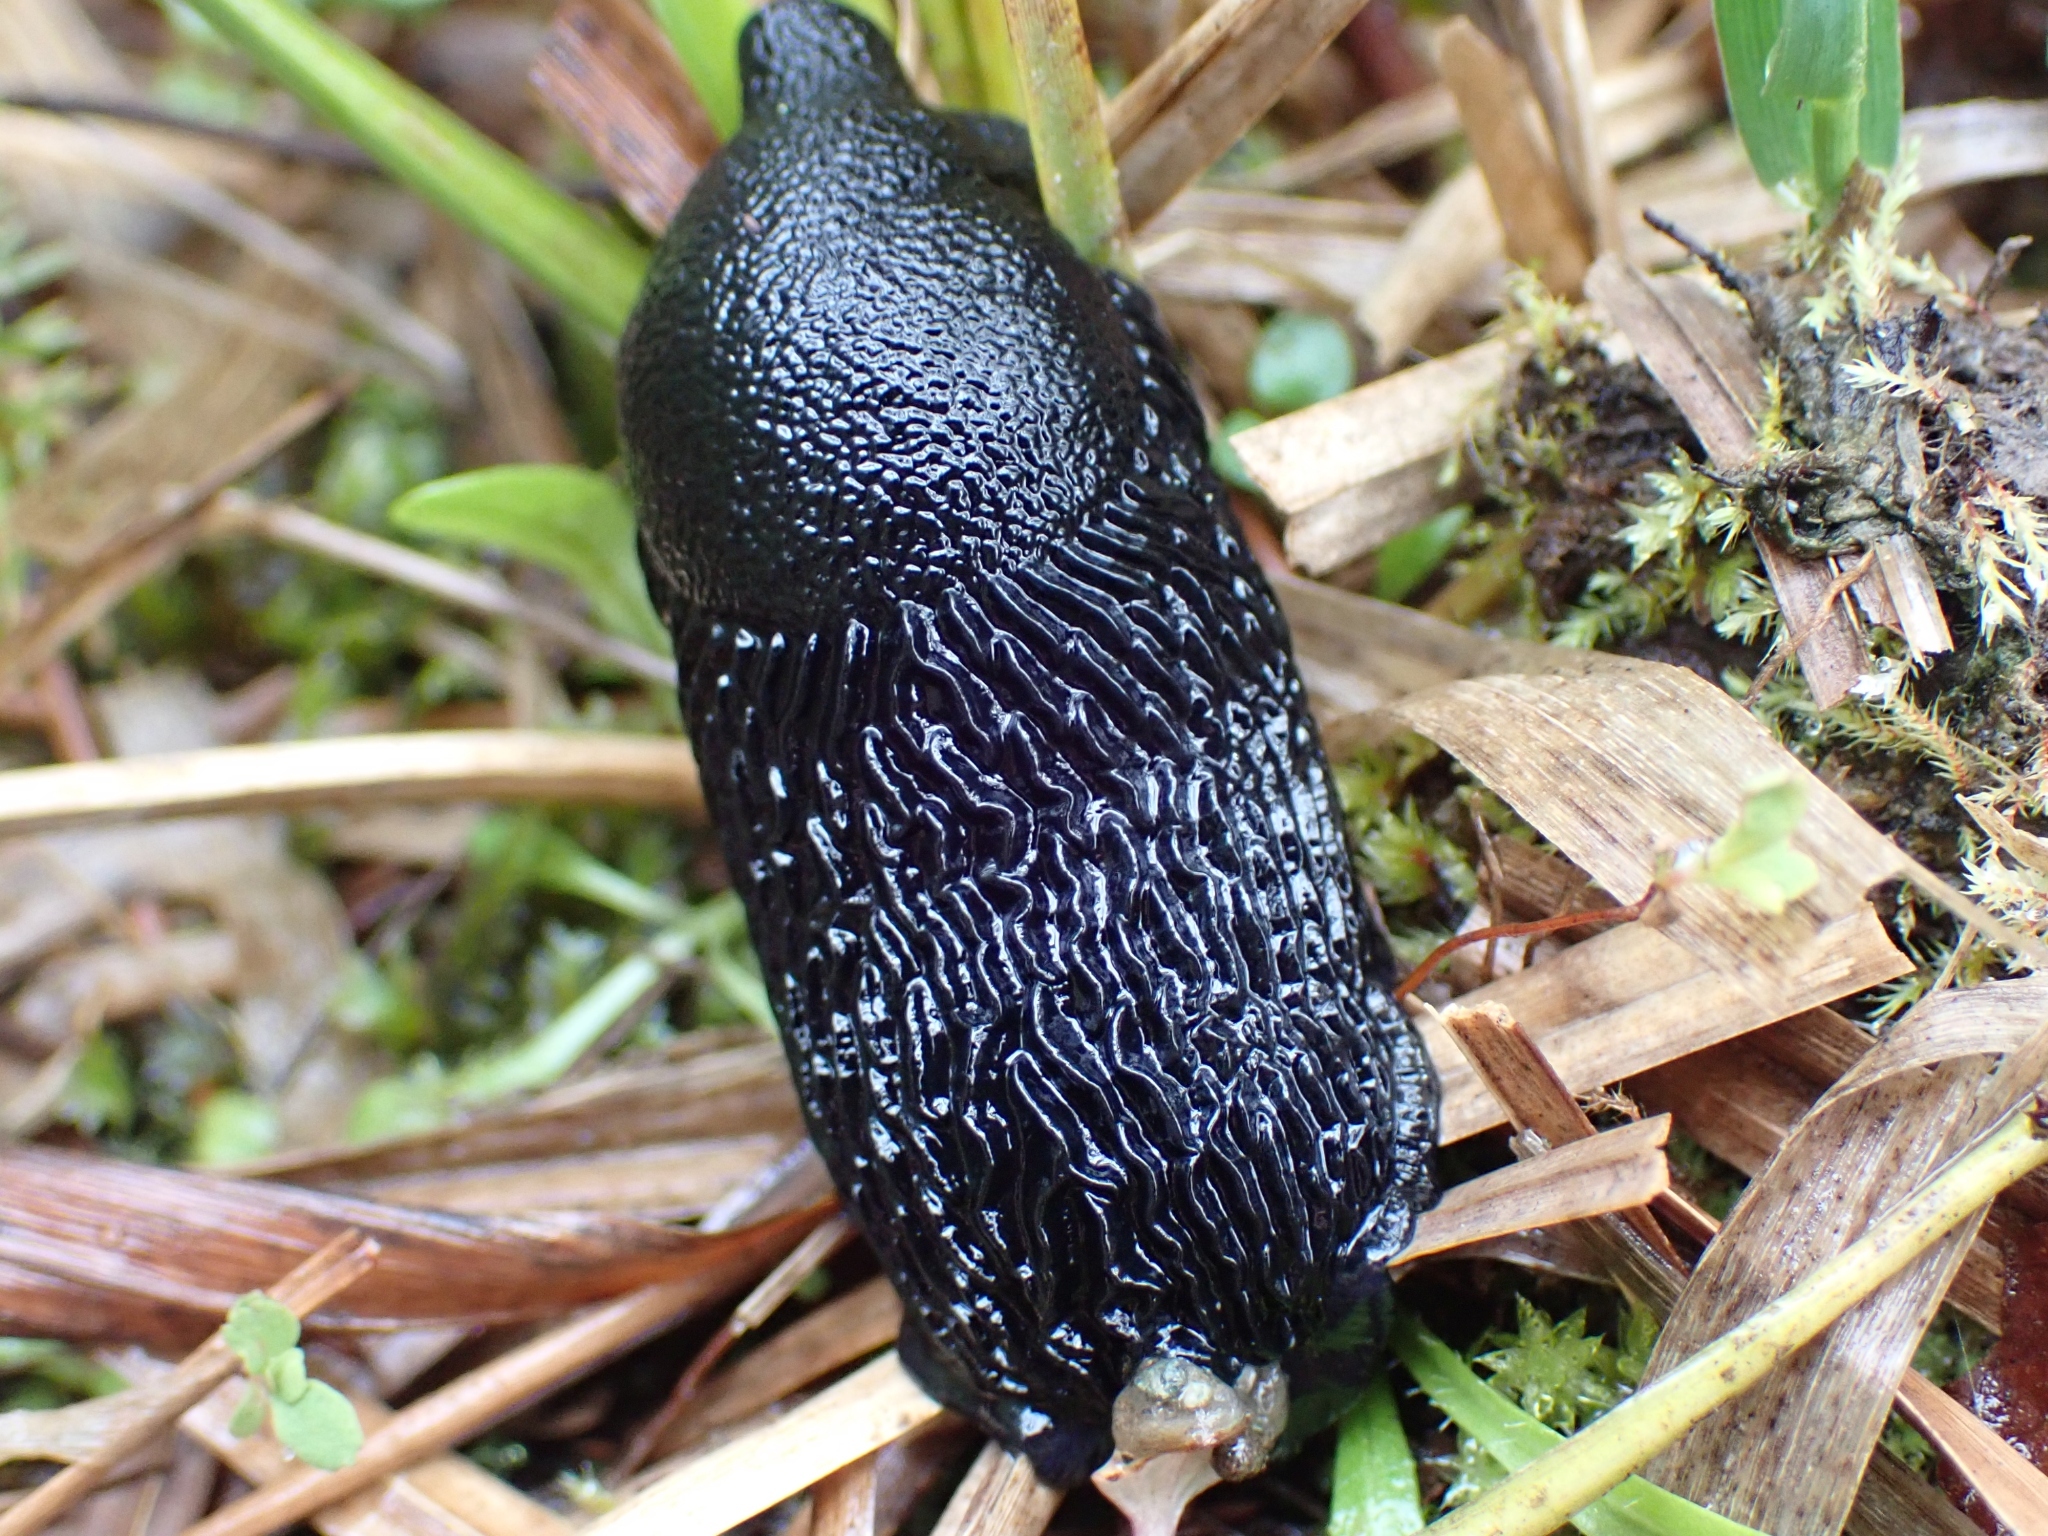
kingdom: Animalia
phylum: Mollusca
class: Gastropoda
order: Stylommatophora
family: Arionidae
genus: Arion
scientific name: Arion
